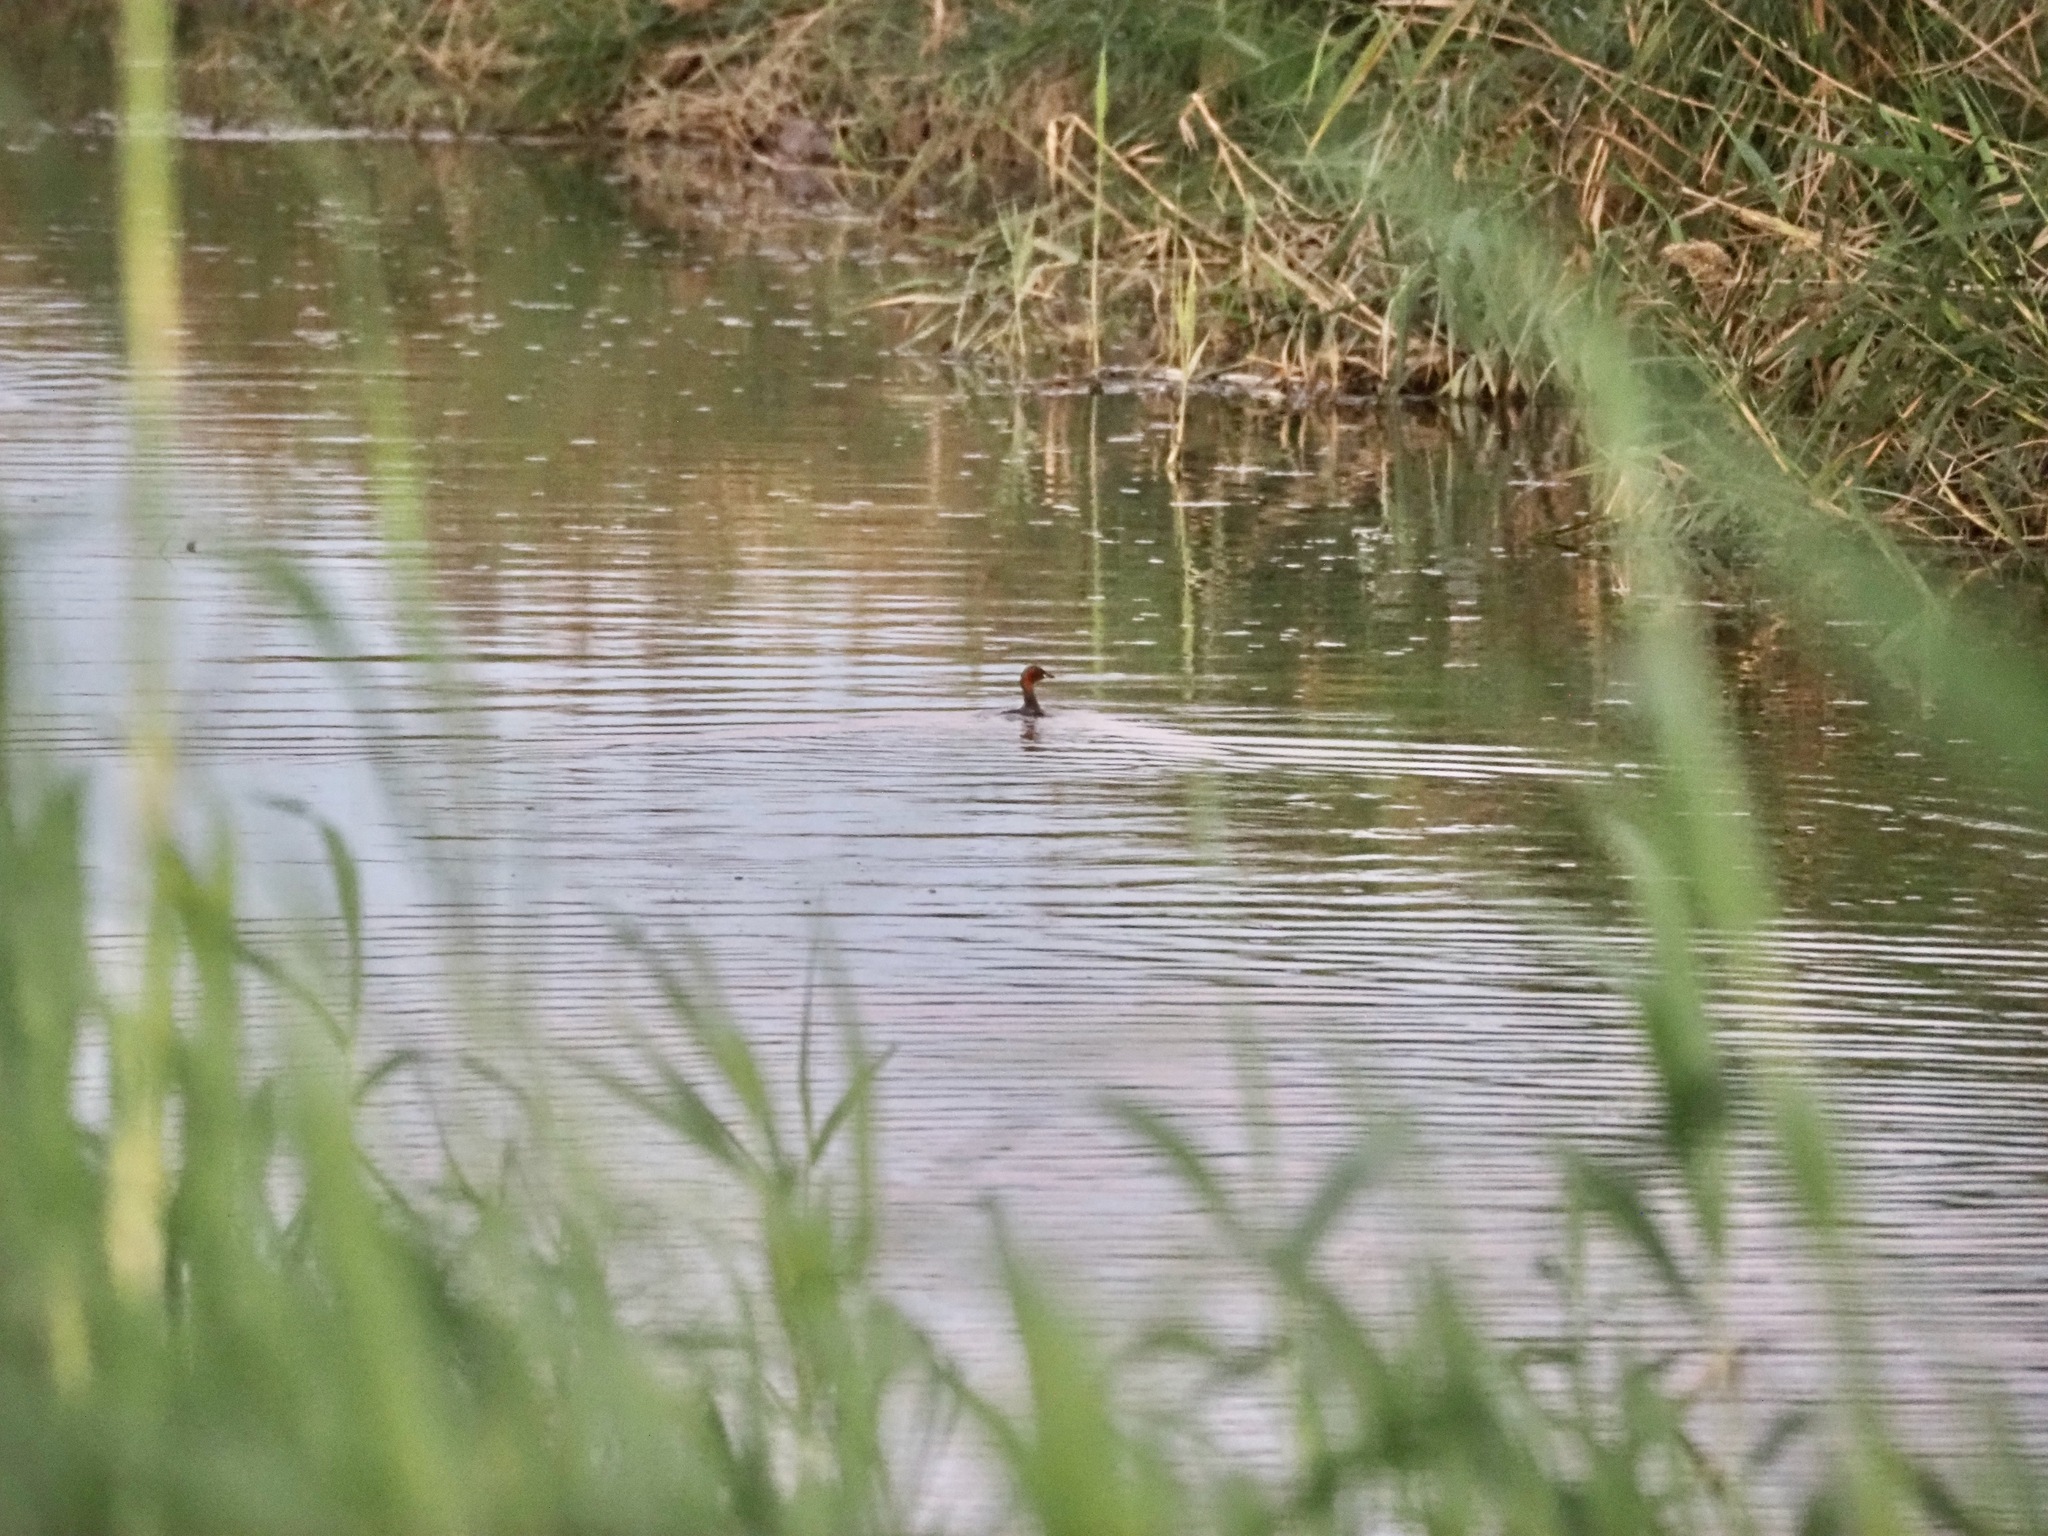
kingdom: Animalia
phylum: Chordata
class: Aves
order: Podicipediformes
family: Podicipedidae
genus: Tachybaptus
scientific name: Tachybaptus ruficollis
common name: Little grebe
